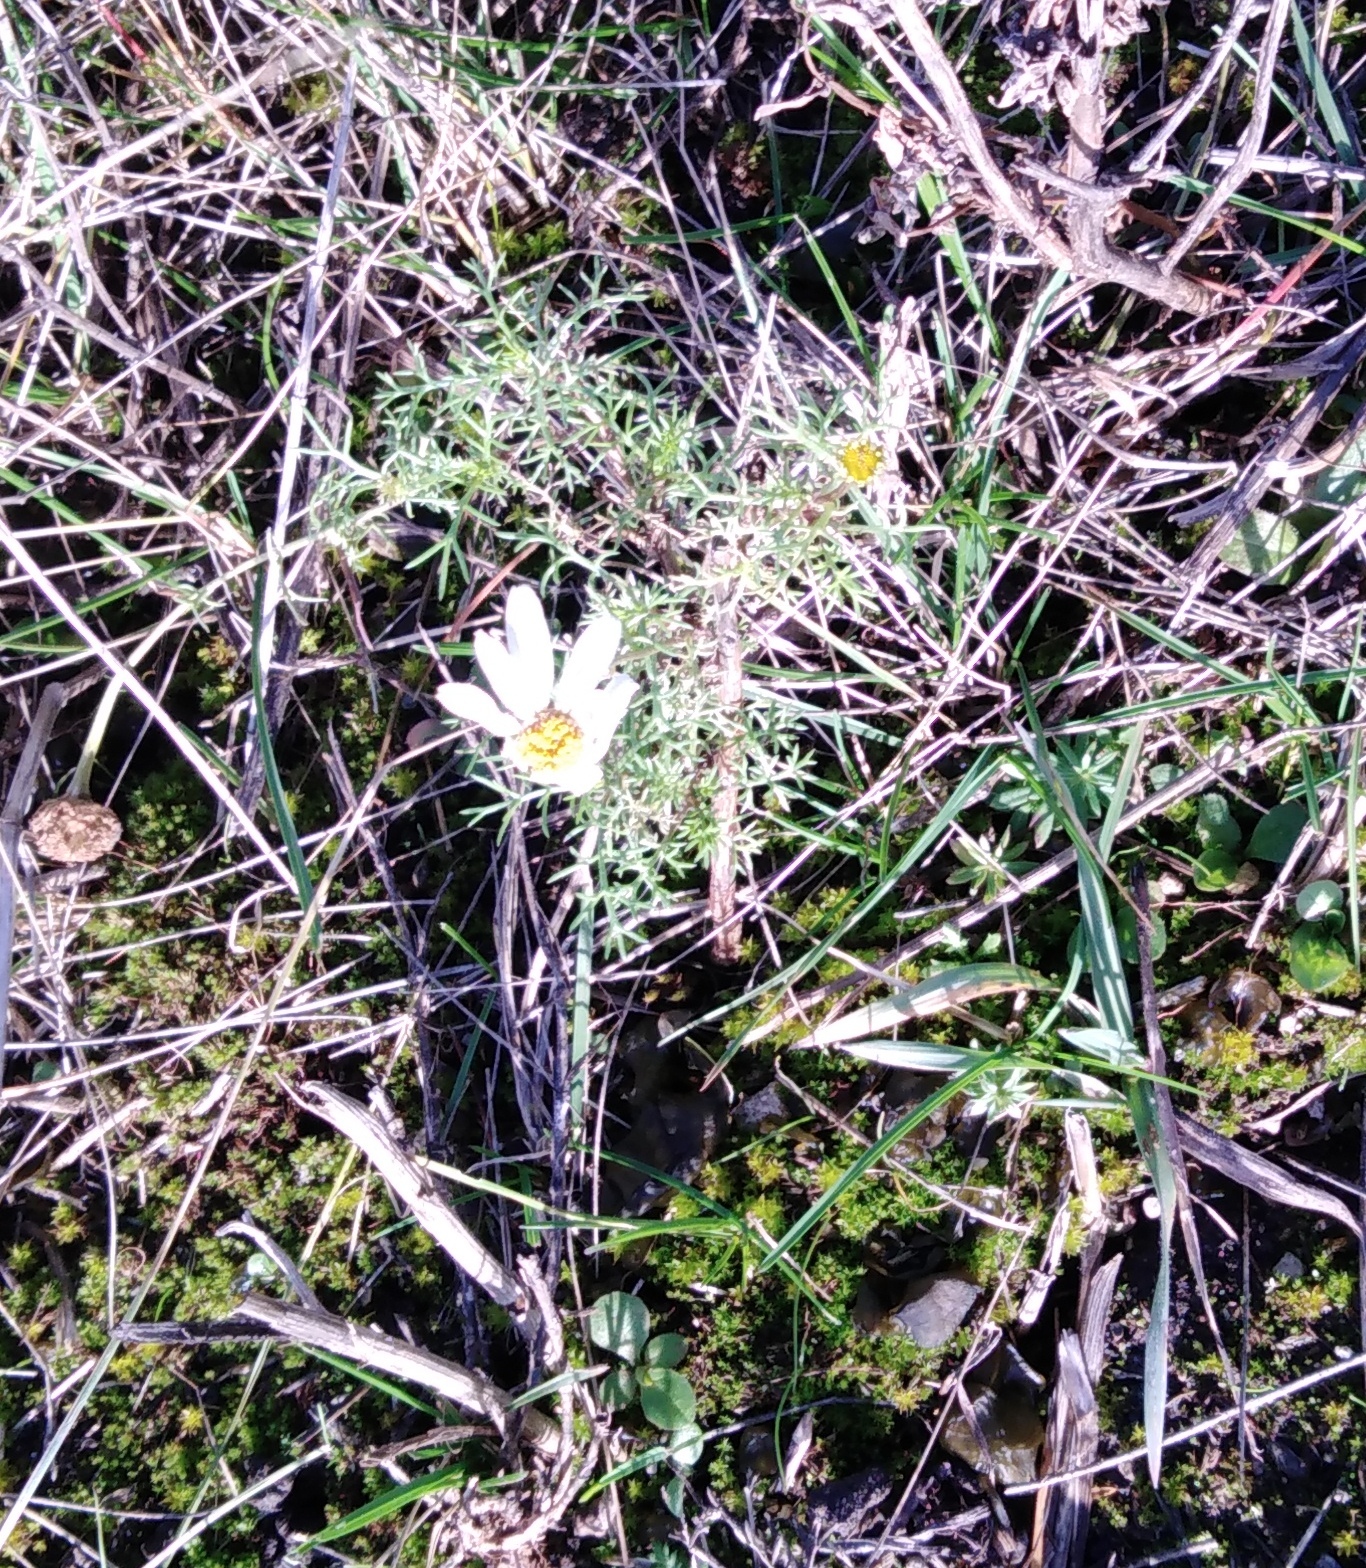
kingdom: Plantae
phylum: Tracheophyta
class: Magnoliopsida
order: Asterales
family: Asteraceae
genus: Tripleurospermum
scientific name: Tripleurospermum inodorum
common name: Scentless mayweed
